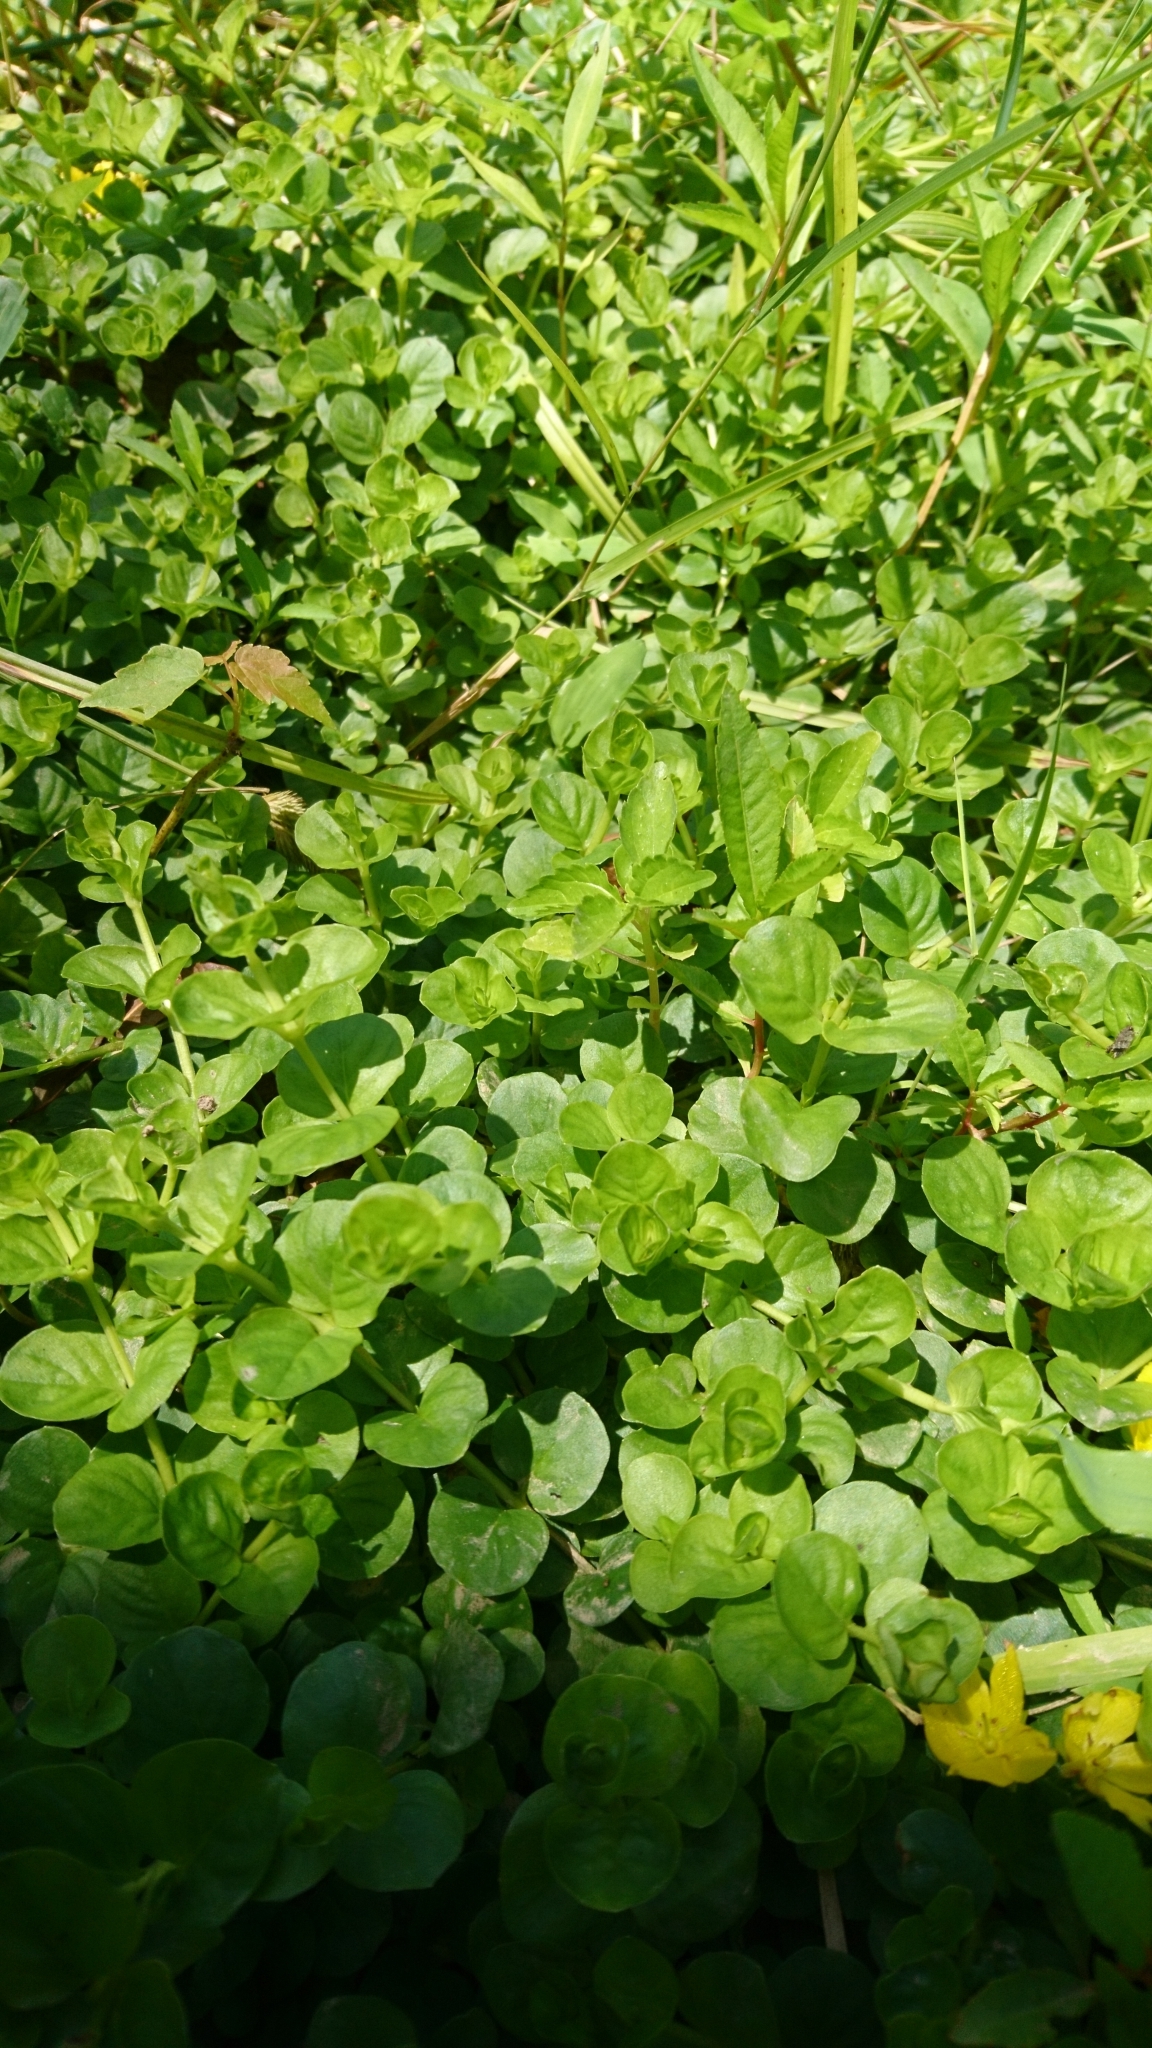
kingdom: Plantae
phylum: Tracheophyta
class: Magnoliopsida
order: Ericales
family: Primulaceae
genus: Lysimachia
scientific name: Lysimachia nummularia
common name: Moneywort
